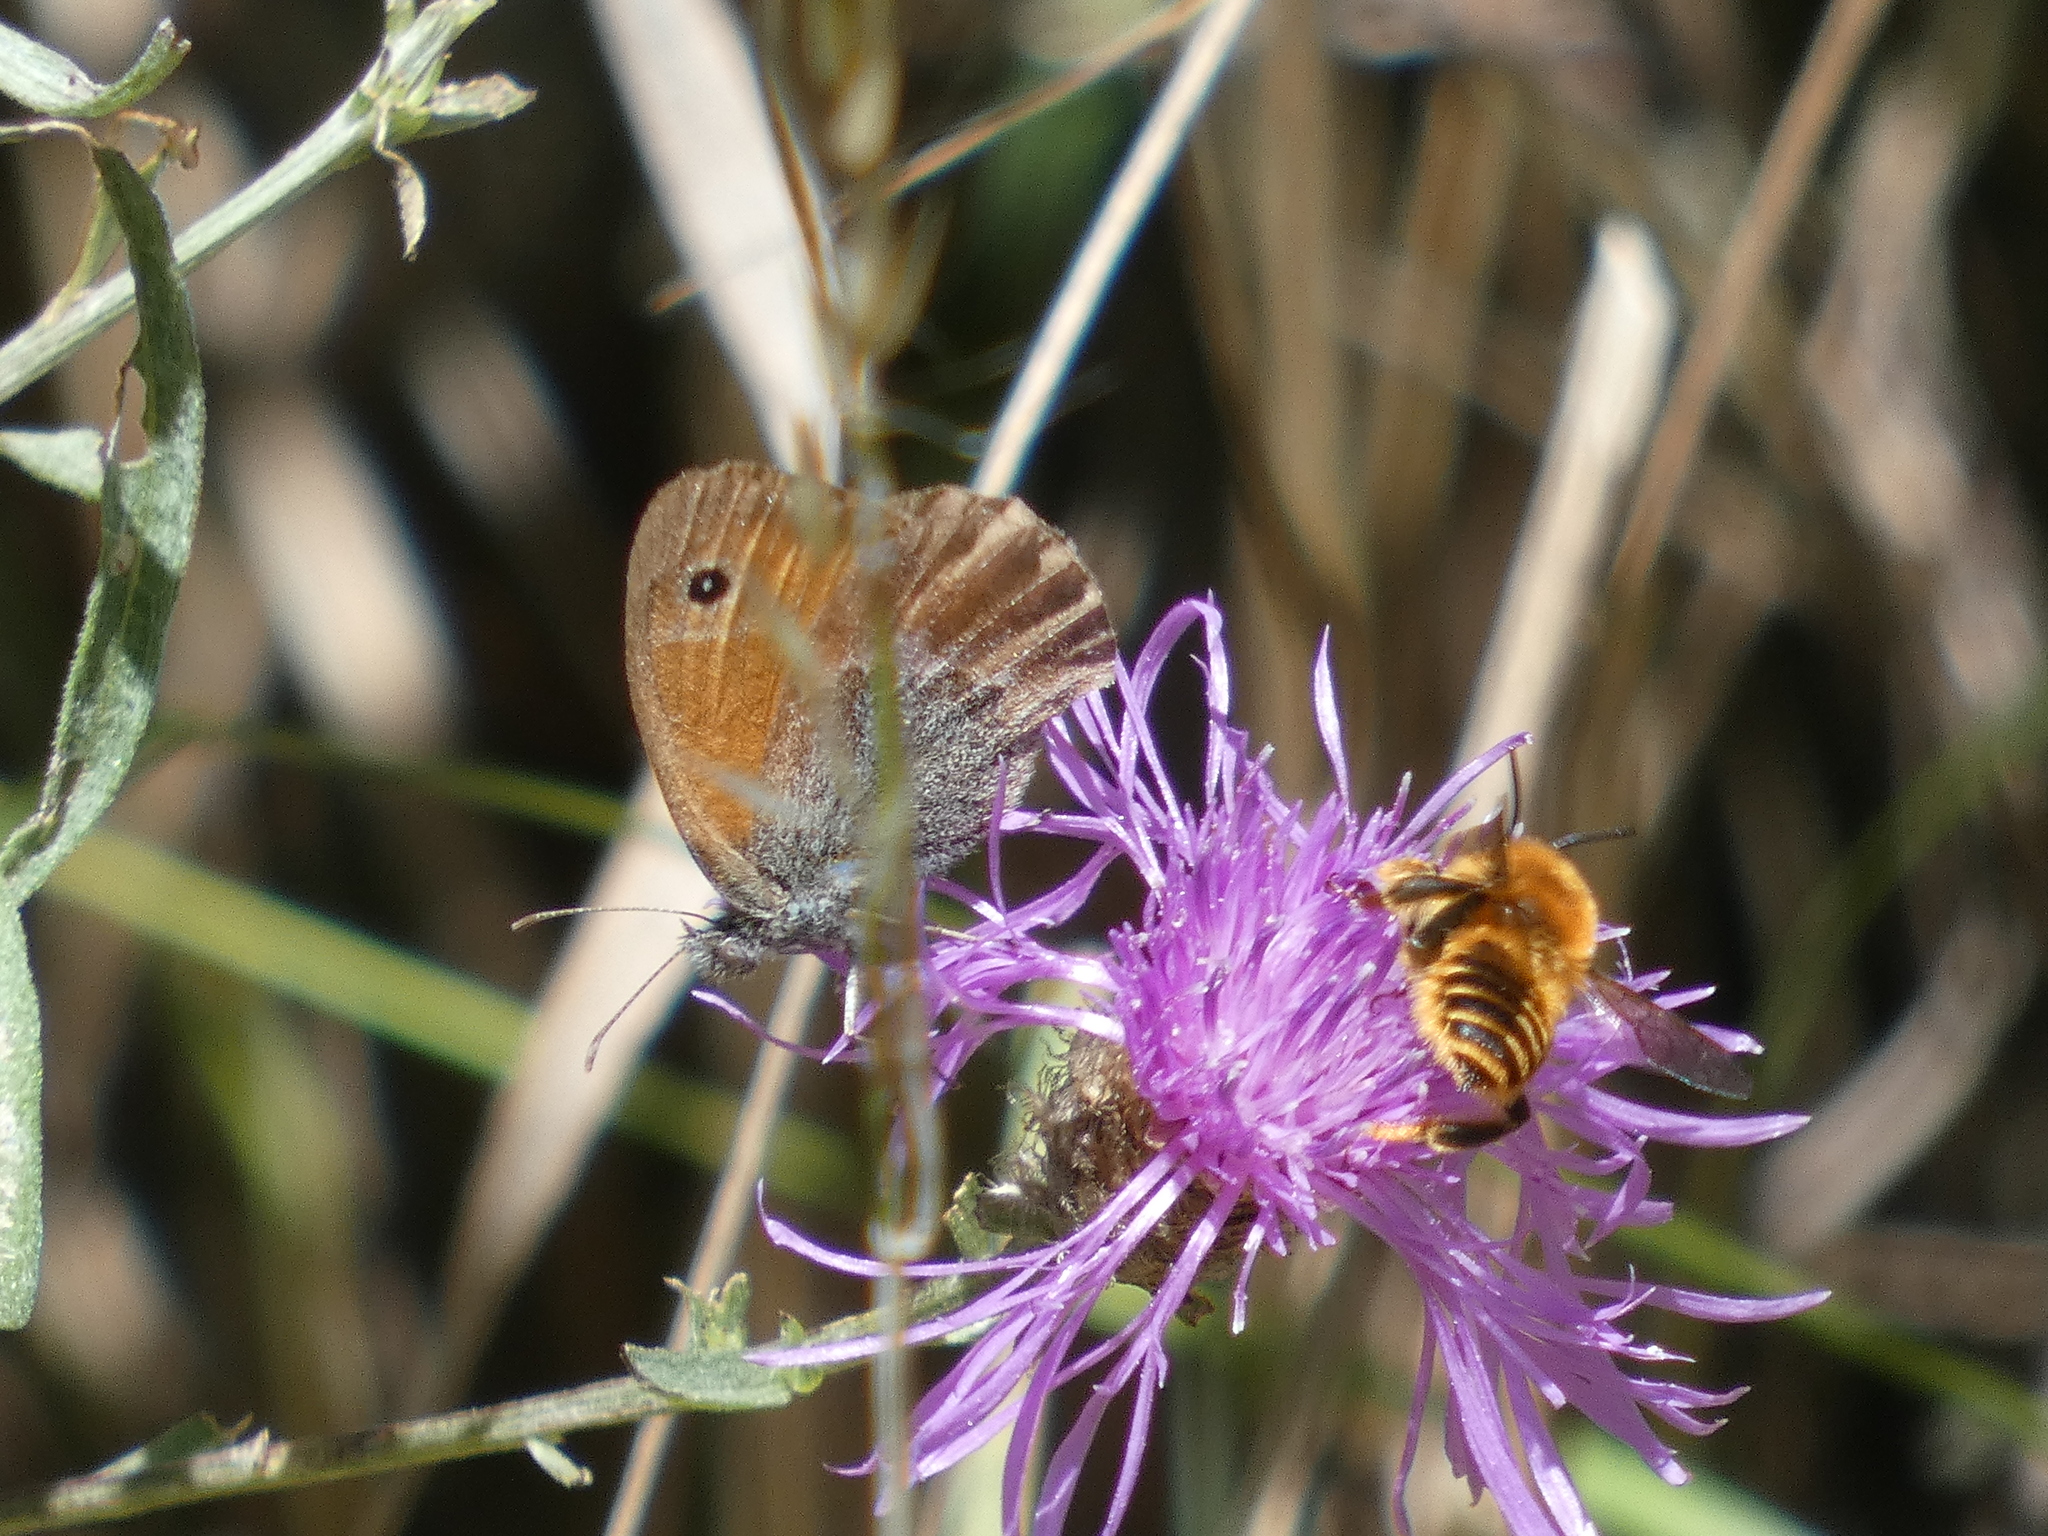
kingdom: Animalia
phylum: Arthropoda
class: Insecta
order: Lepidoptera
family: Nymphalidae
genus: Coenonympha
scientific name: Coenonympha pamphilus
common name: Small heath
